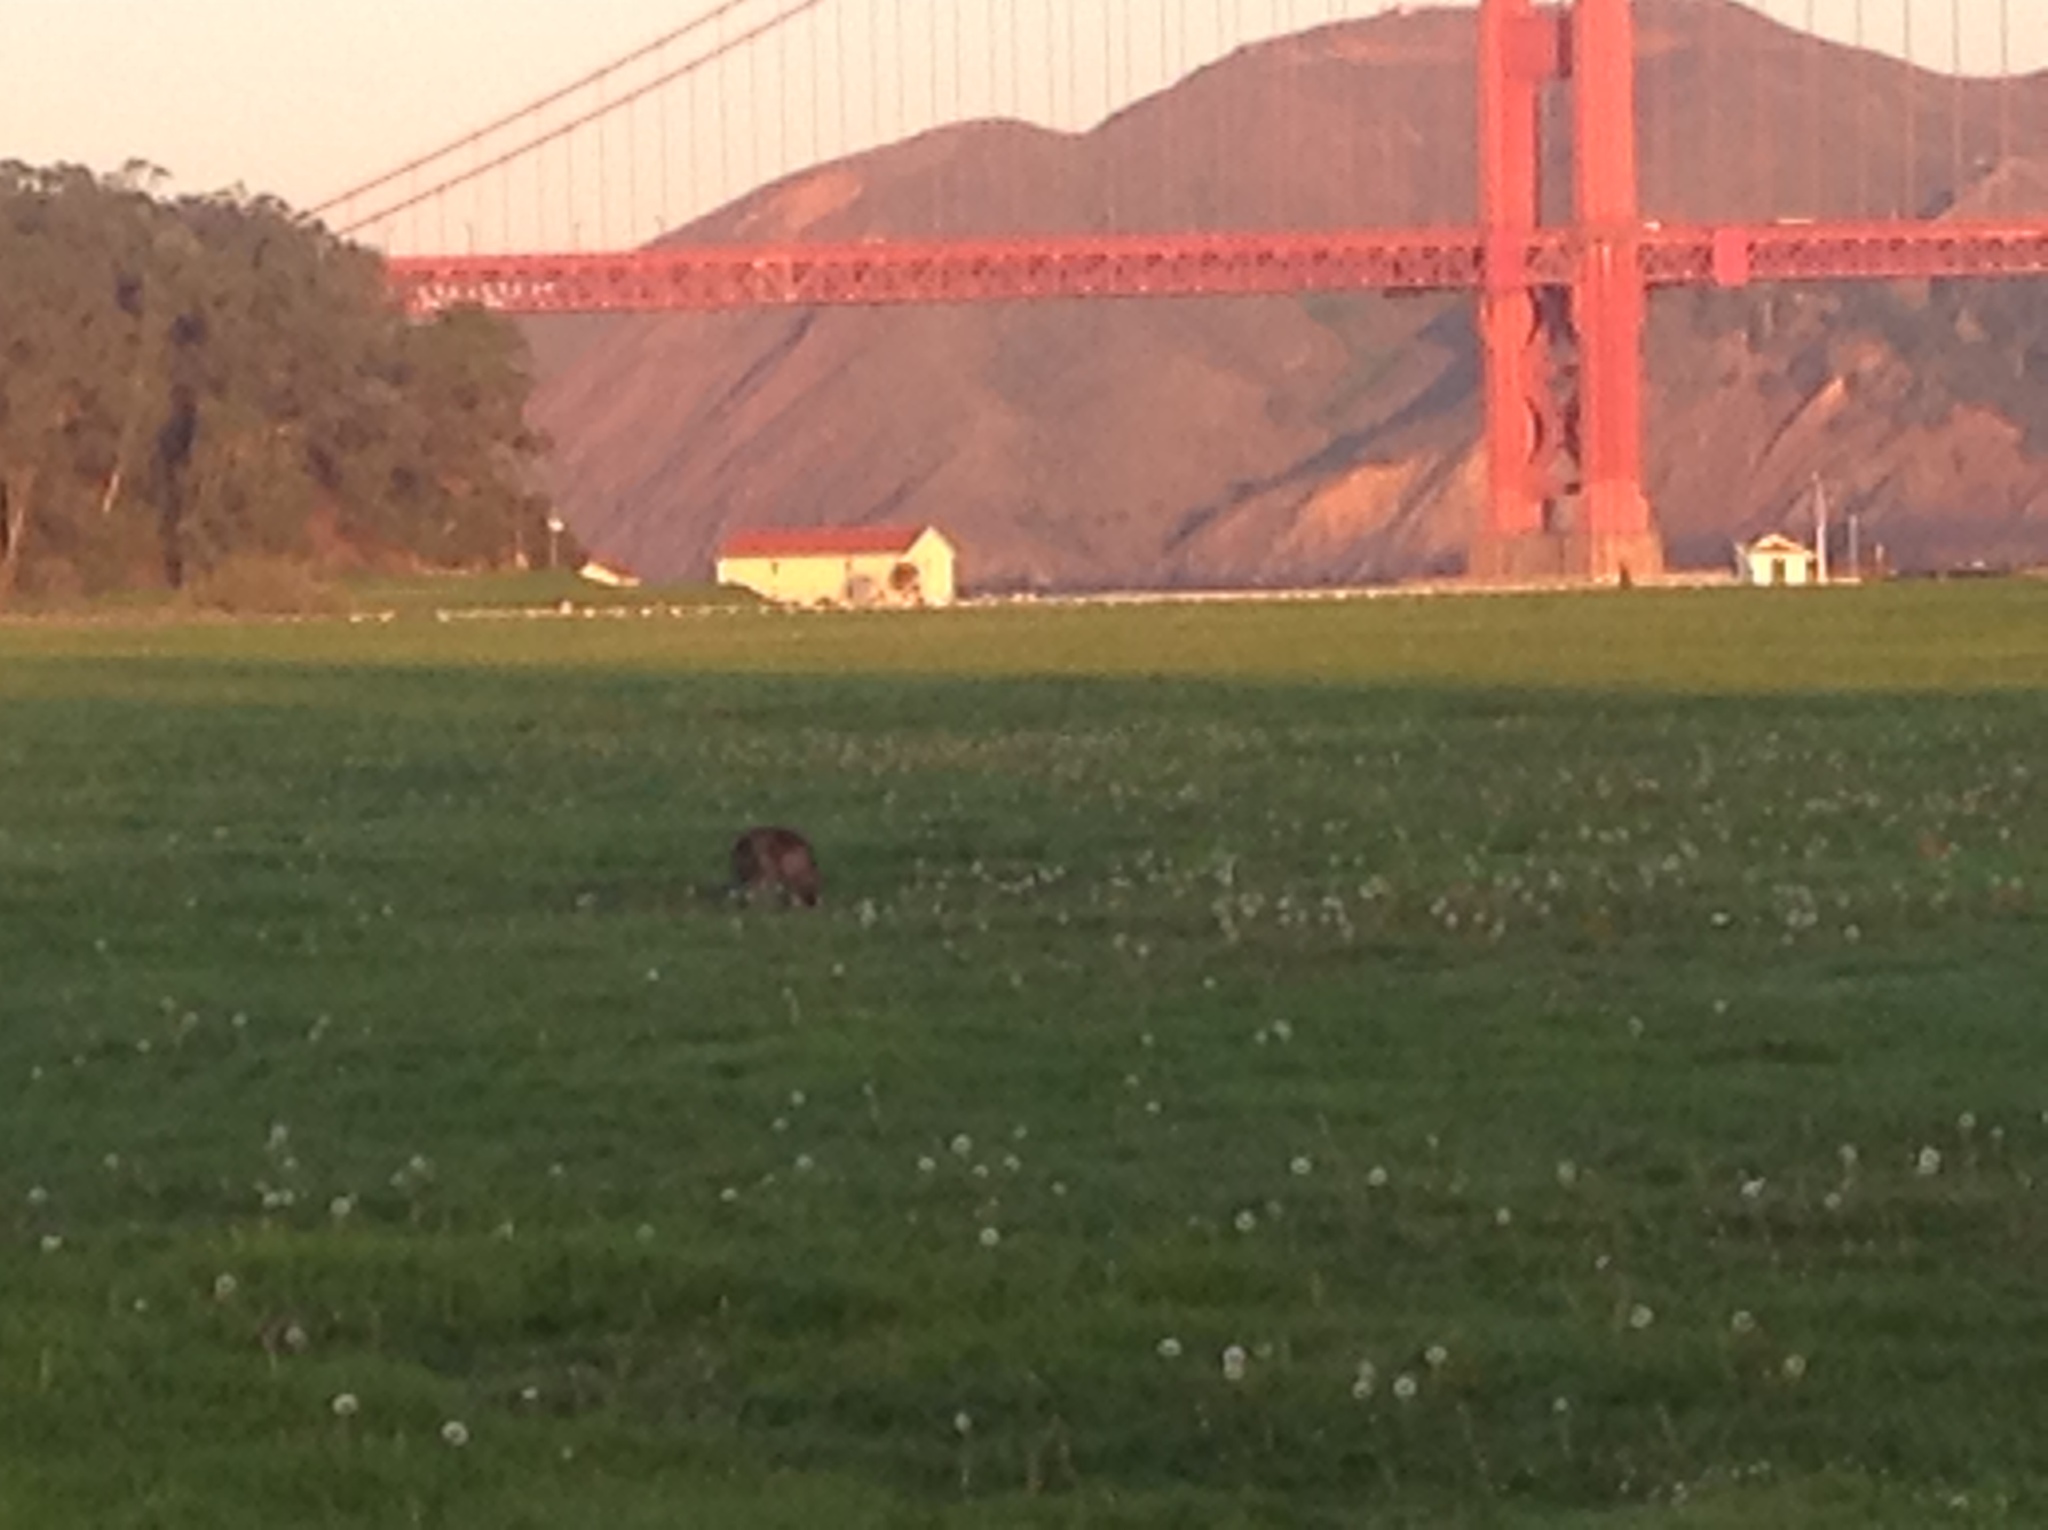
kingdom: Animalia
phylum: Chordata
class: Mammalia
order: Carnivora
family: Canidae
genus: Canis
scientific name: Canis latrans
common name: Coyote
